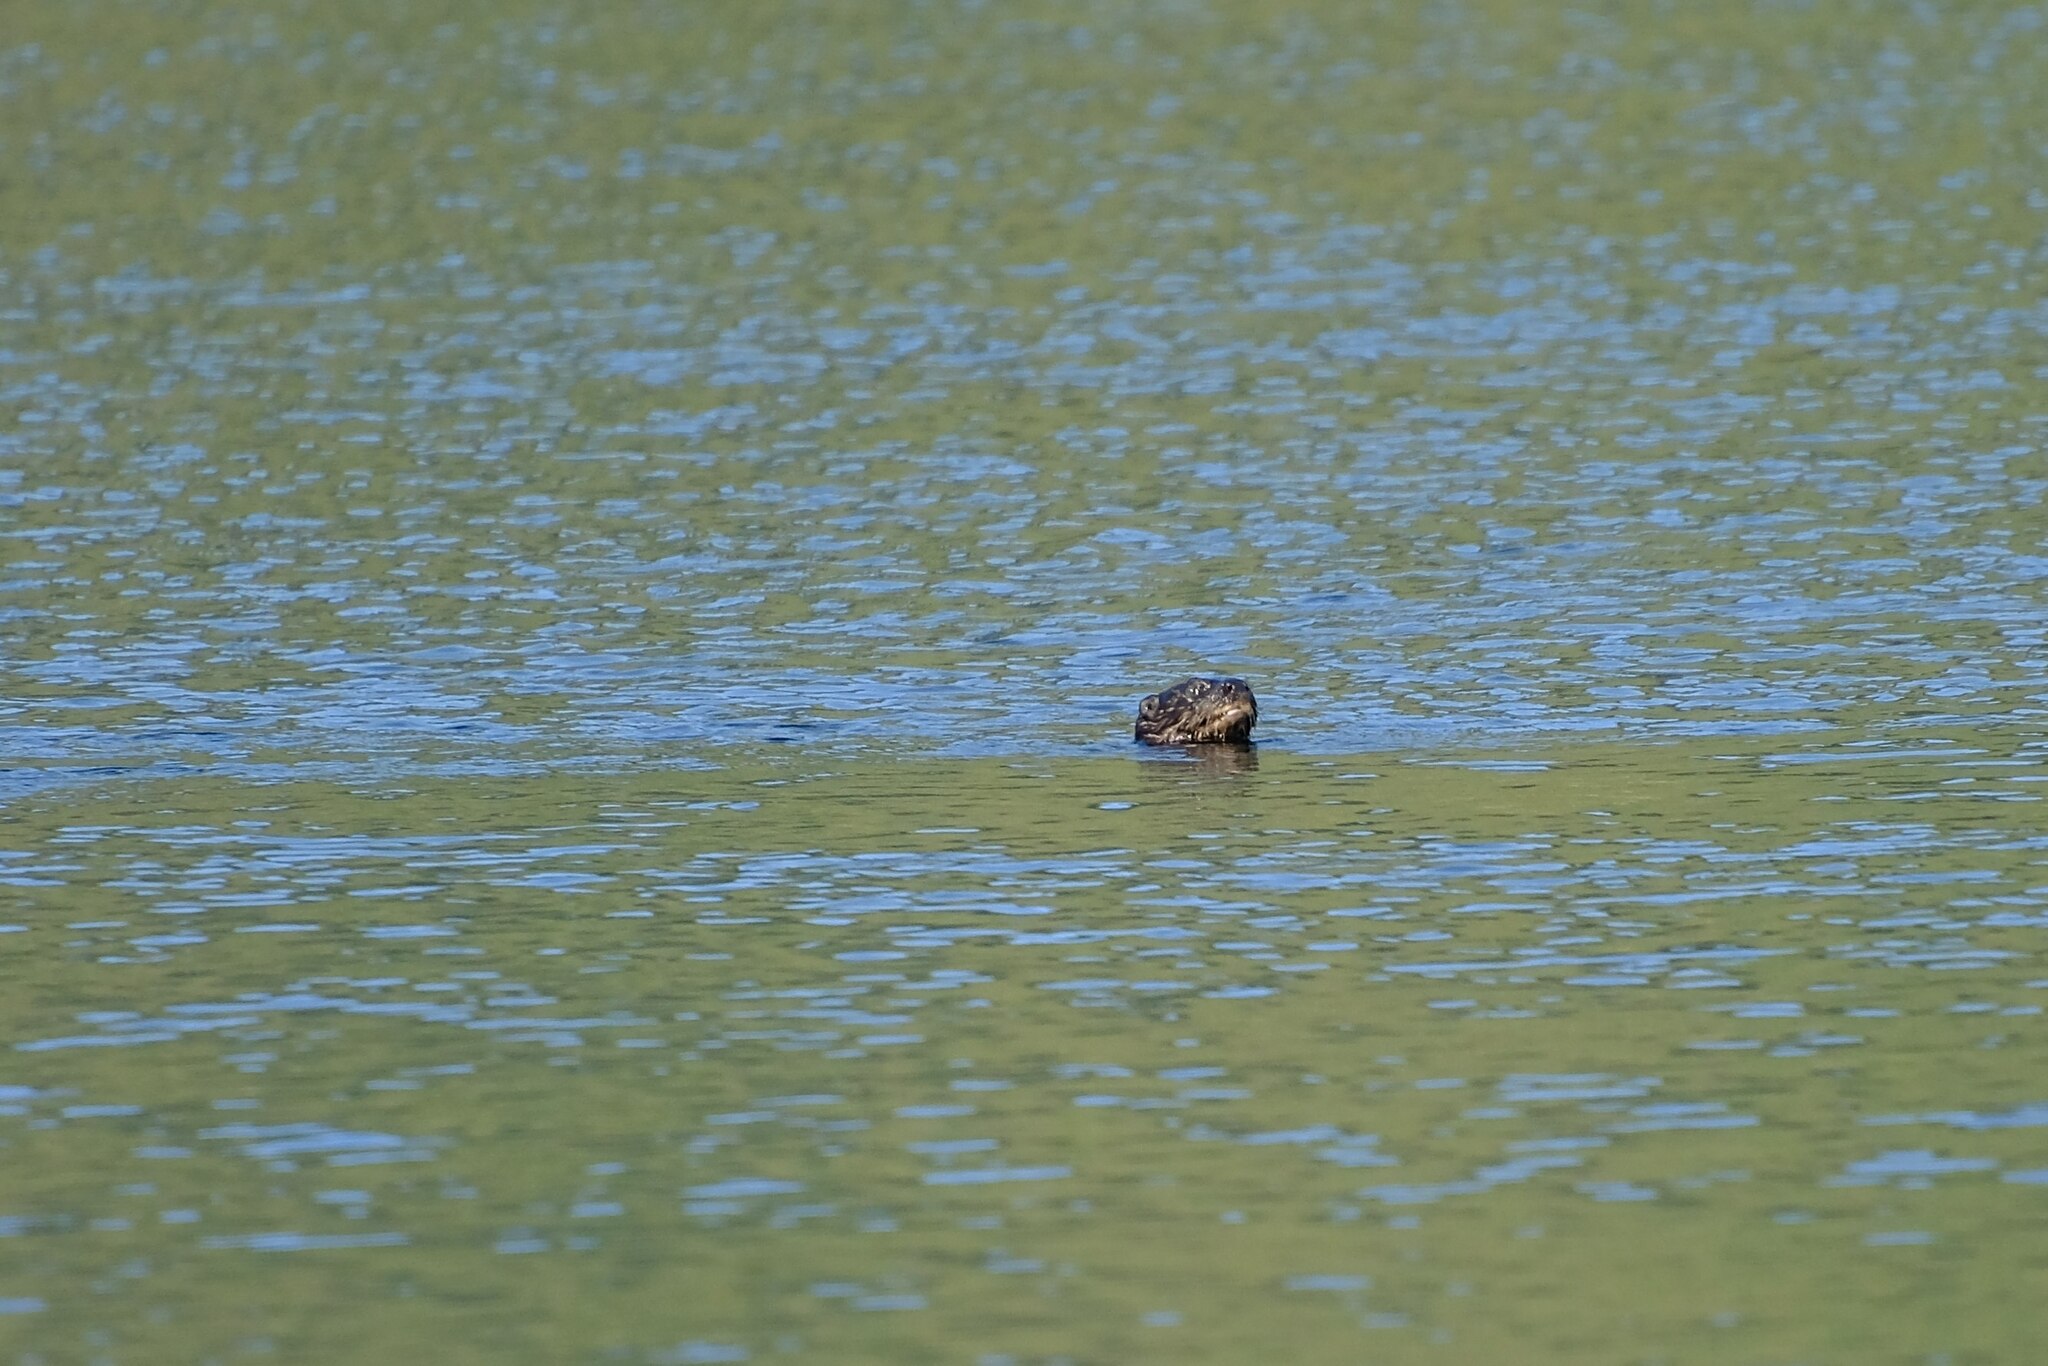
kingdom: Animalia
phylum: Chordata
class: Mammalia
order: Carnivora
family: Mustelidae
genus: Hydrictis
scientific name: Hydrictis maculicollis
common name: Spotted-necked otter
